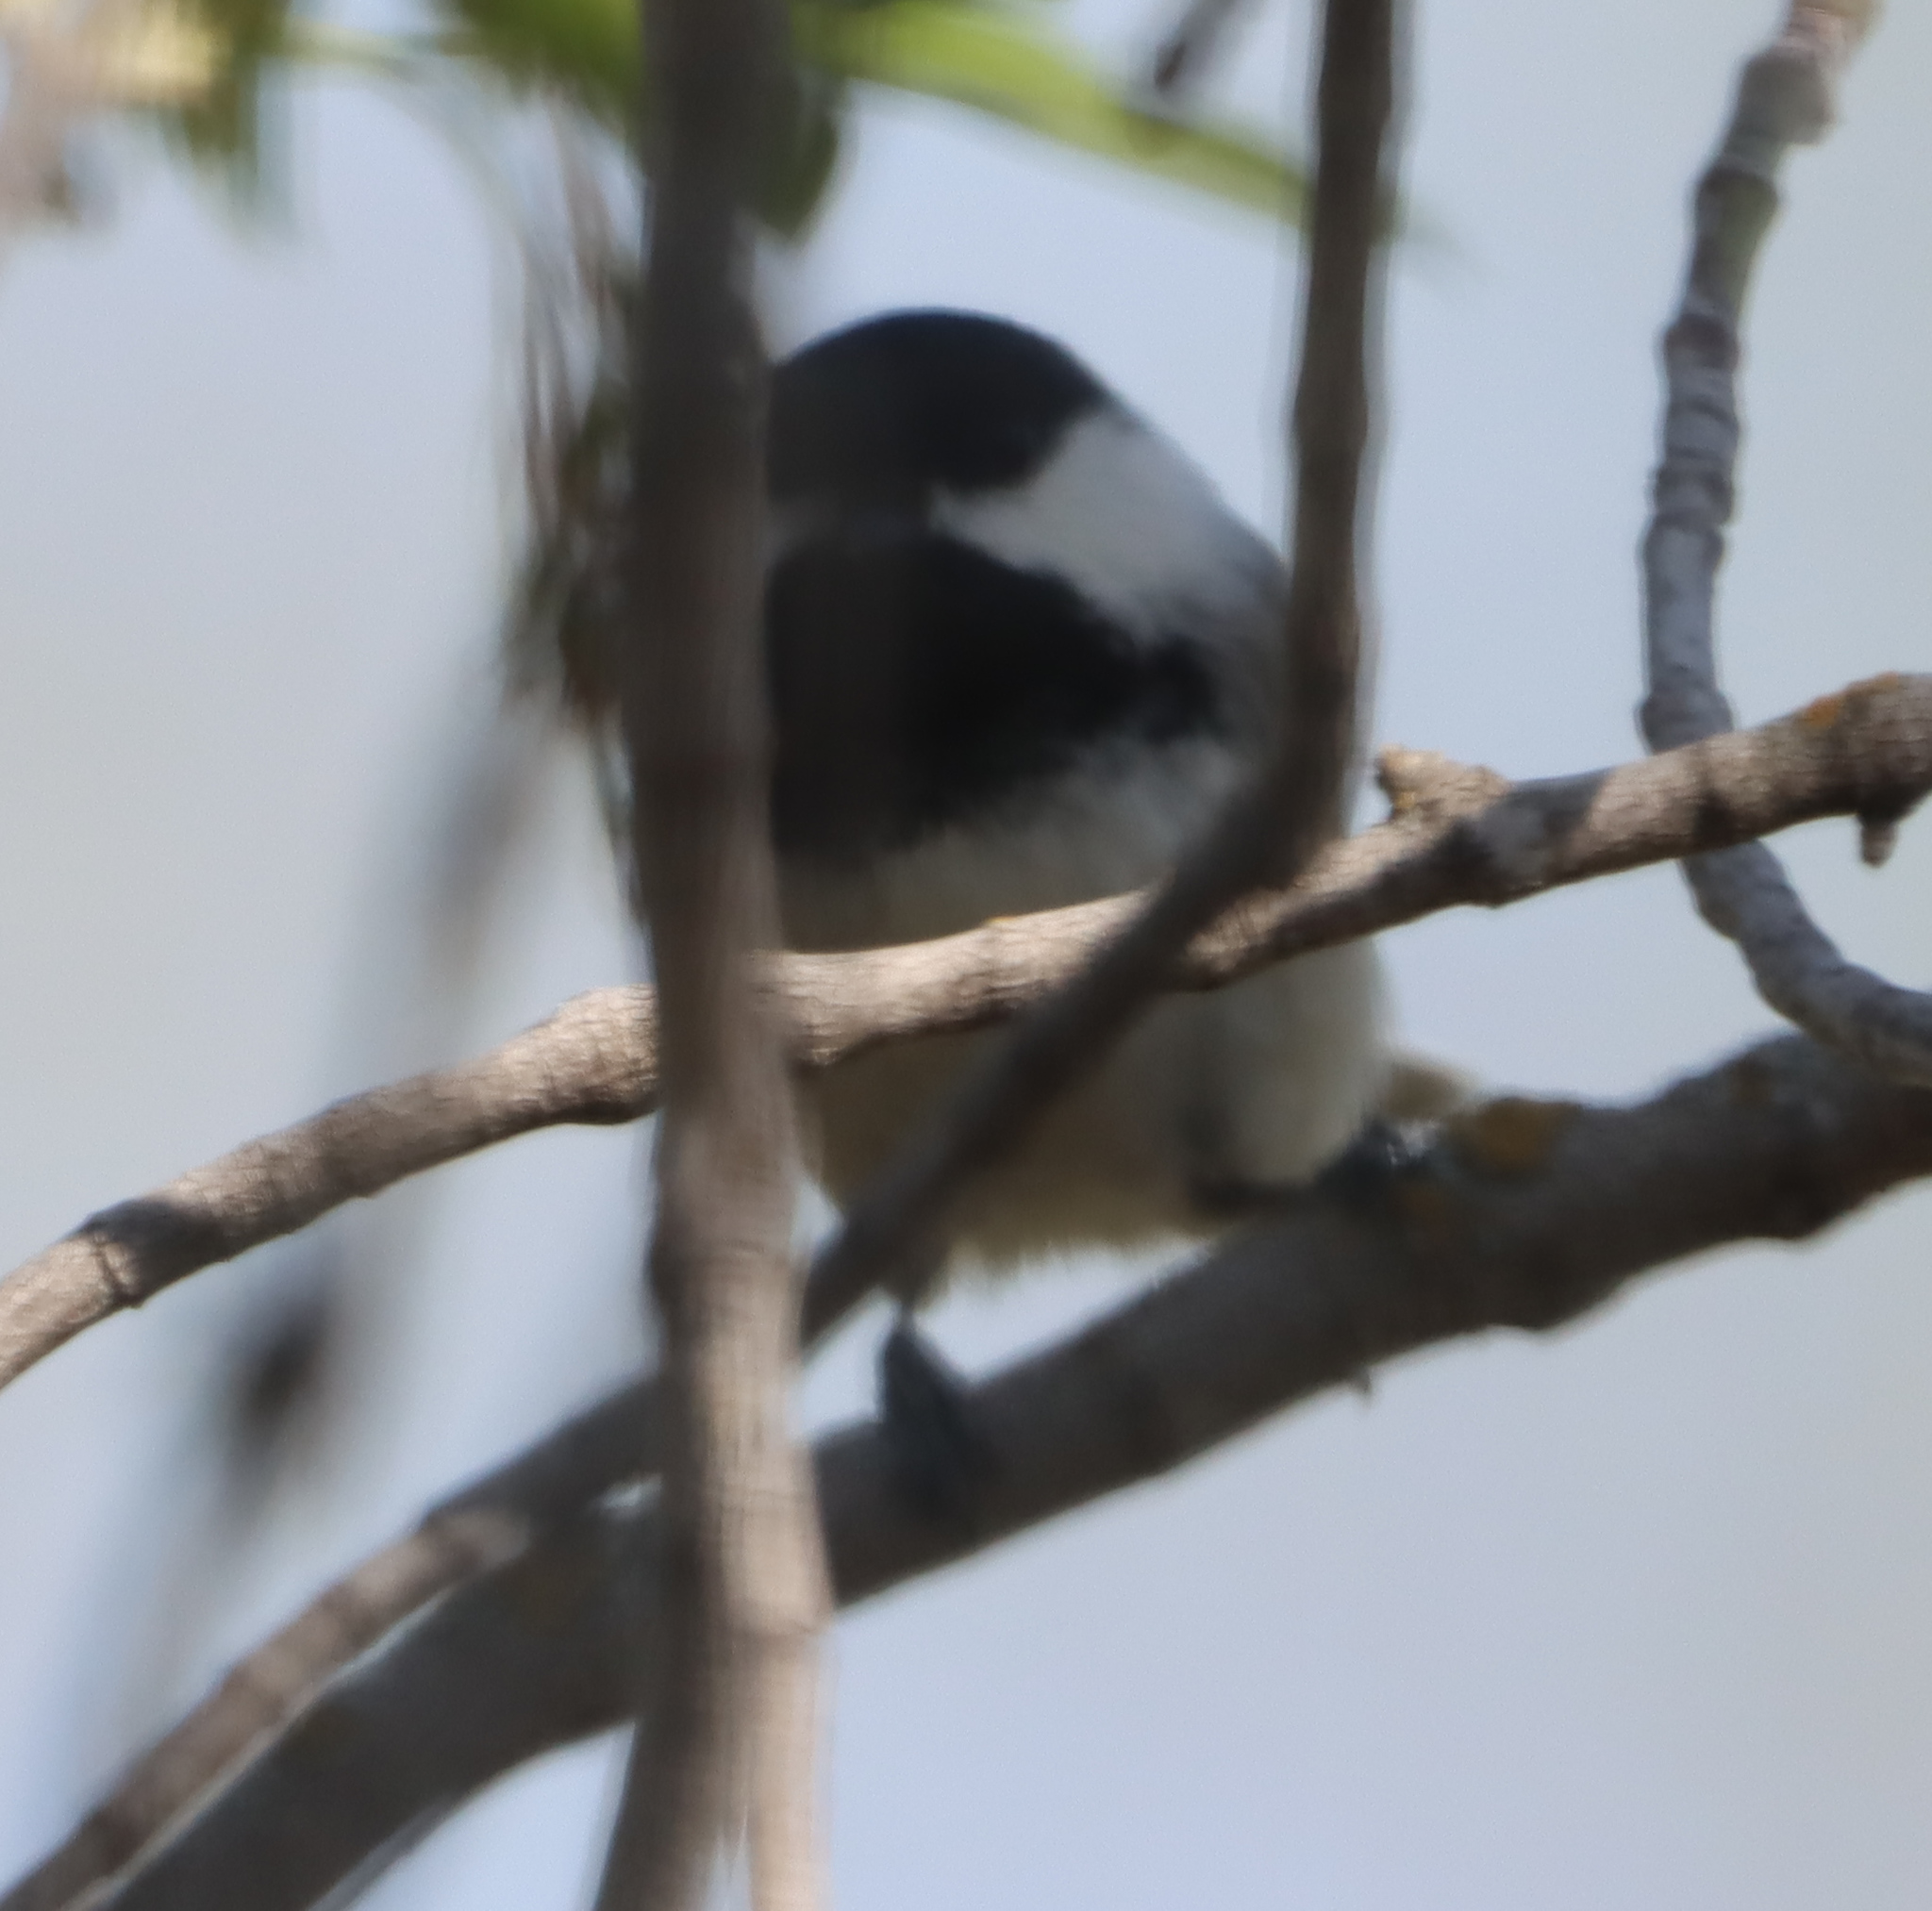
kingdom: Animalia
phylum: Chordata
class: Aves
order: Passeriformes
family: Paridae
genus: Poecile
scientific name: Poecile atricapillus
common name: Black-capped chickadee
